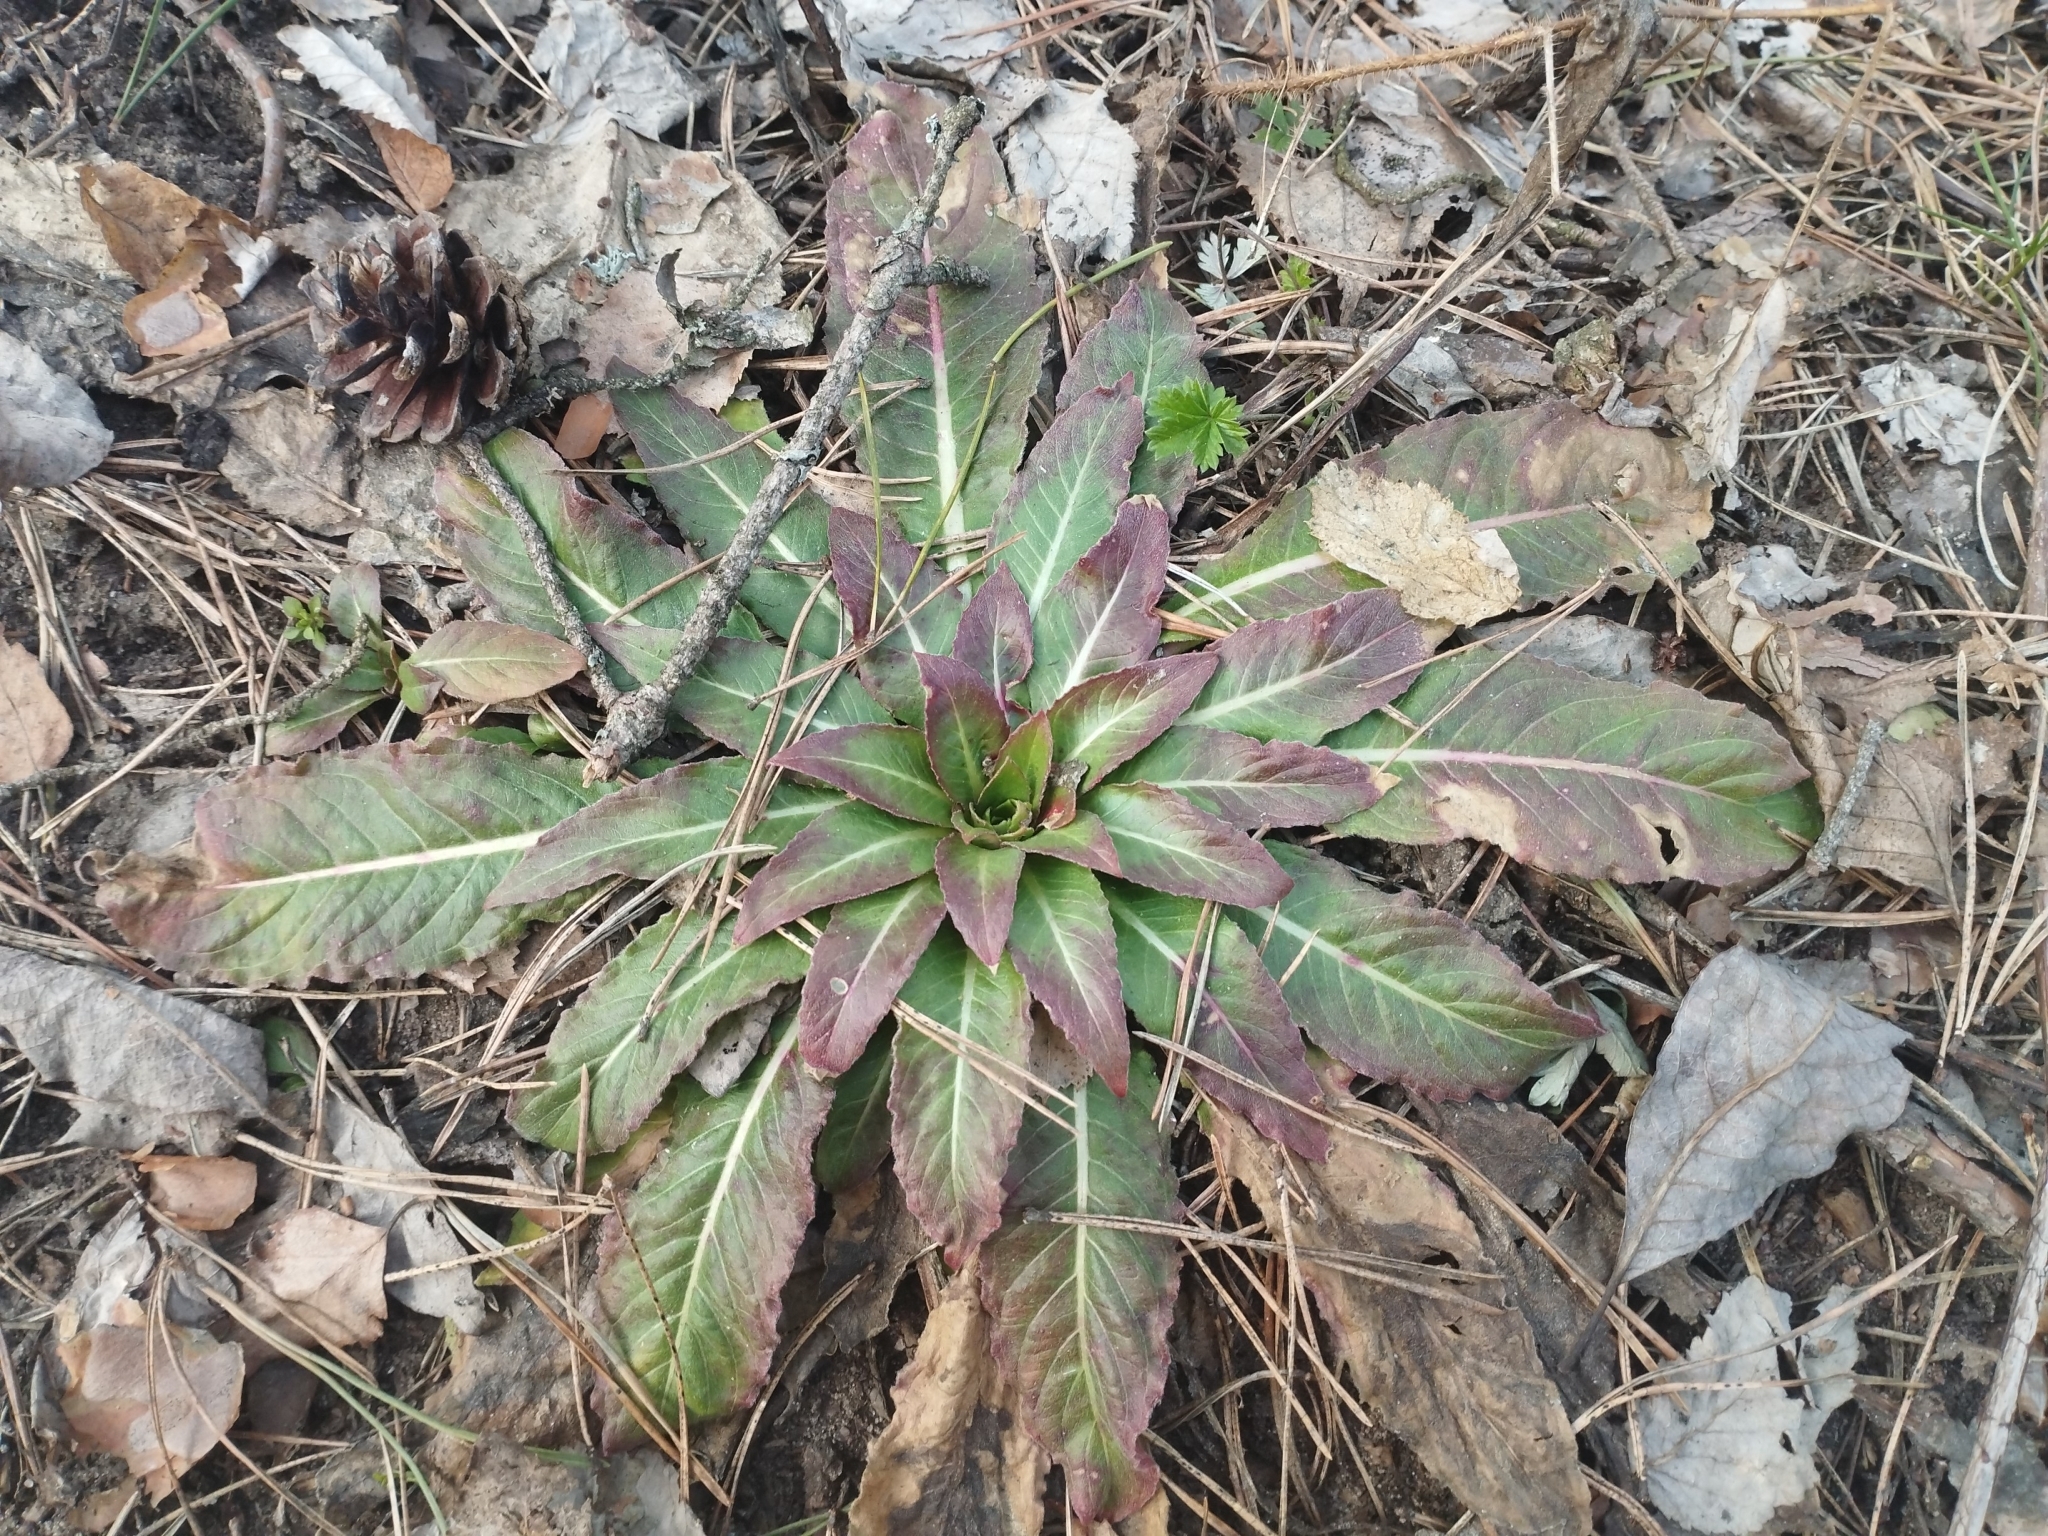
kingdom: Plantae
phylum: Tracheophyta
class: Magnoliopsida
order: Myrtales
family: Onagraceae
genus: Oenothera
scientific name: Oenothera biennis
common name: Common evening-primrose
